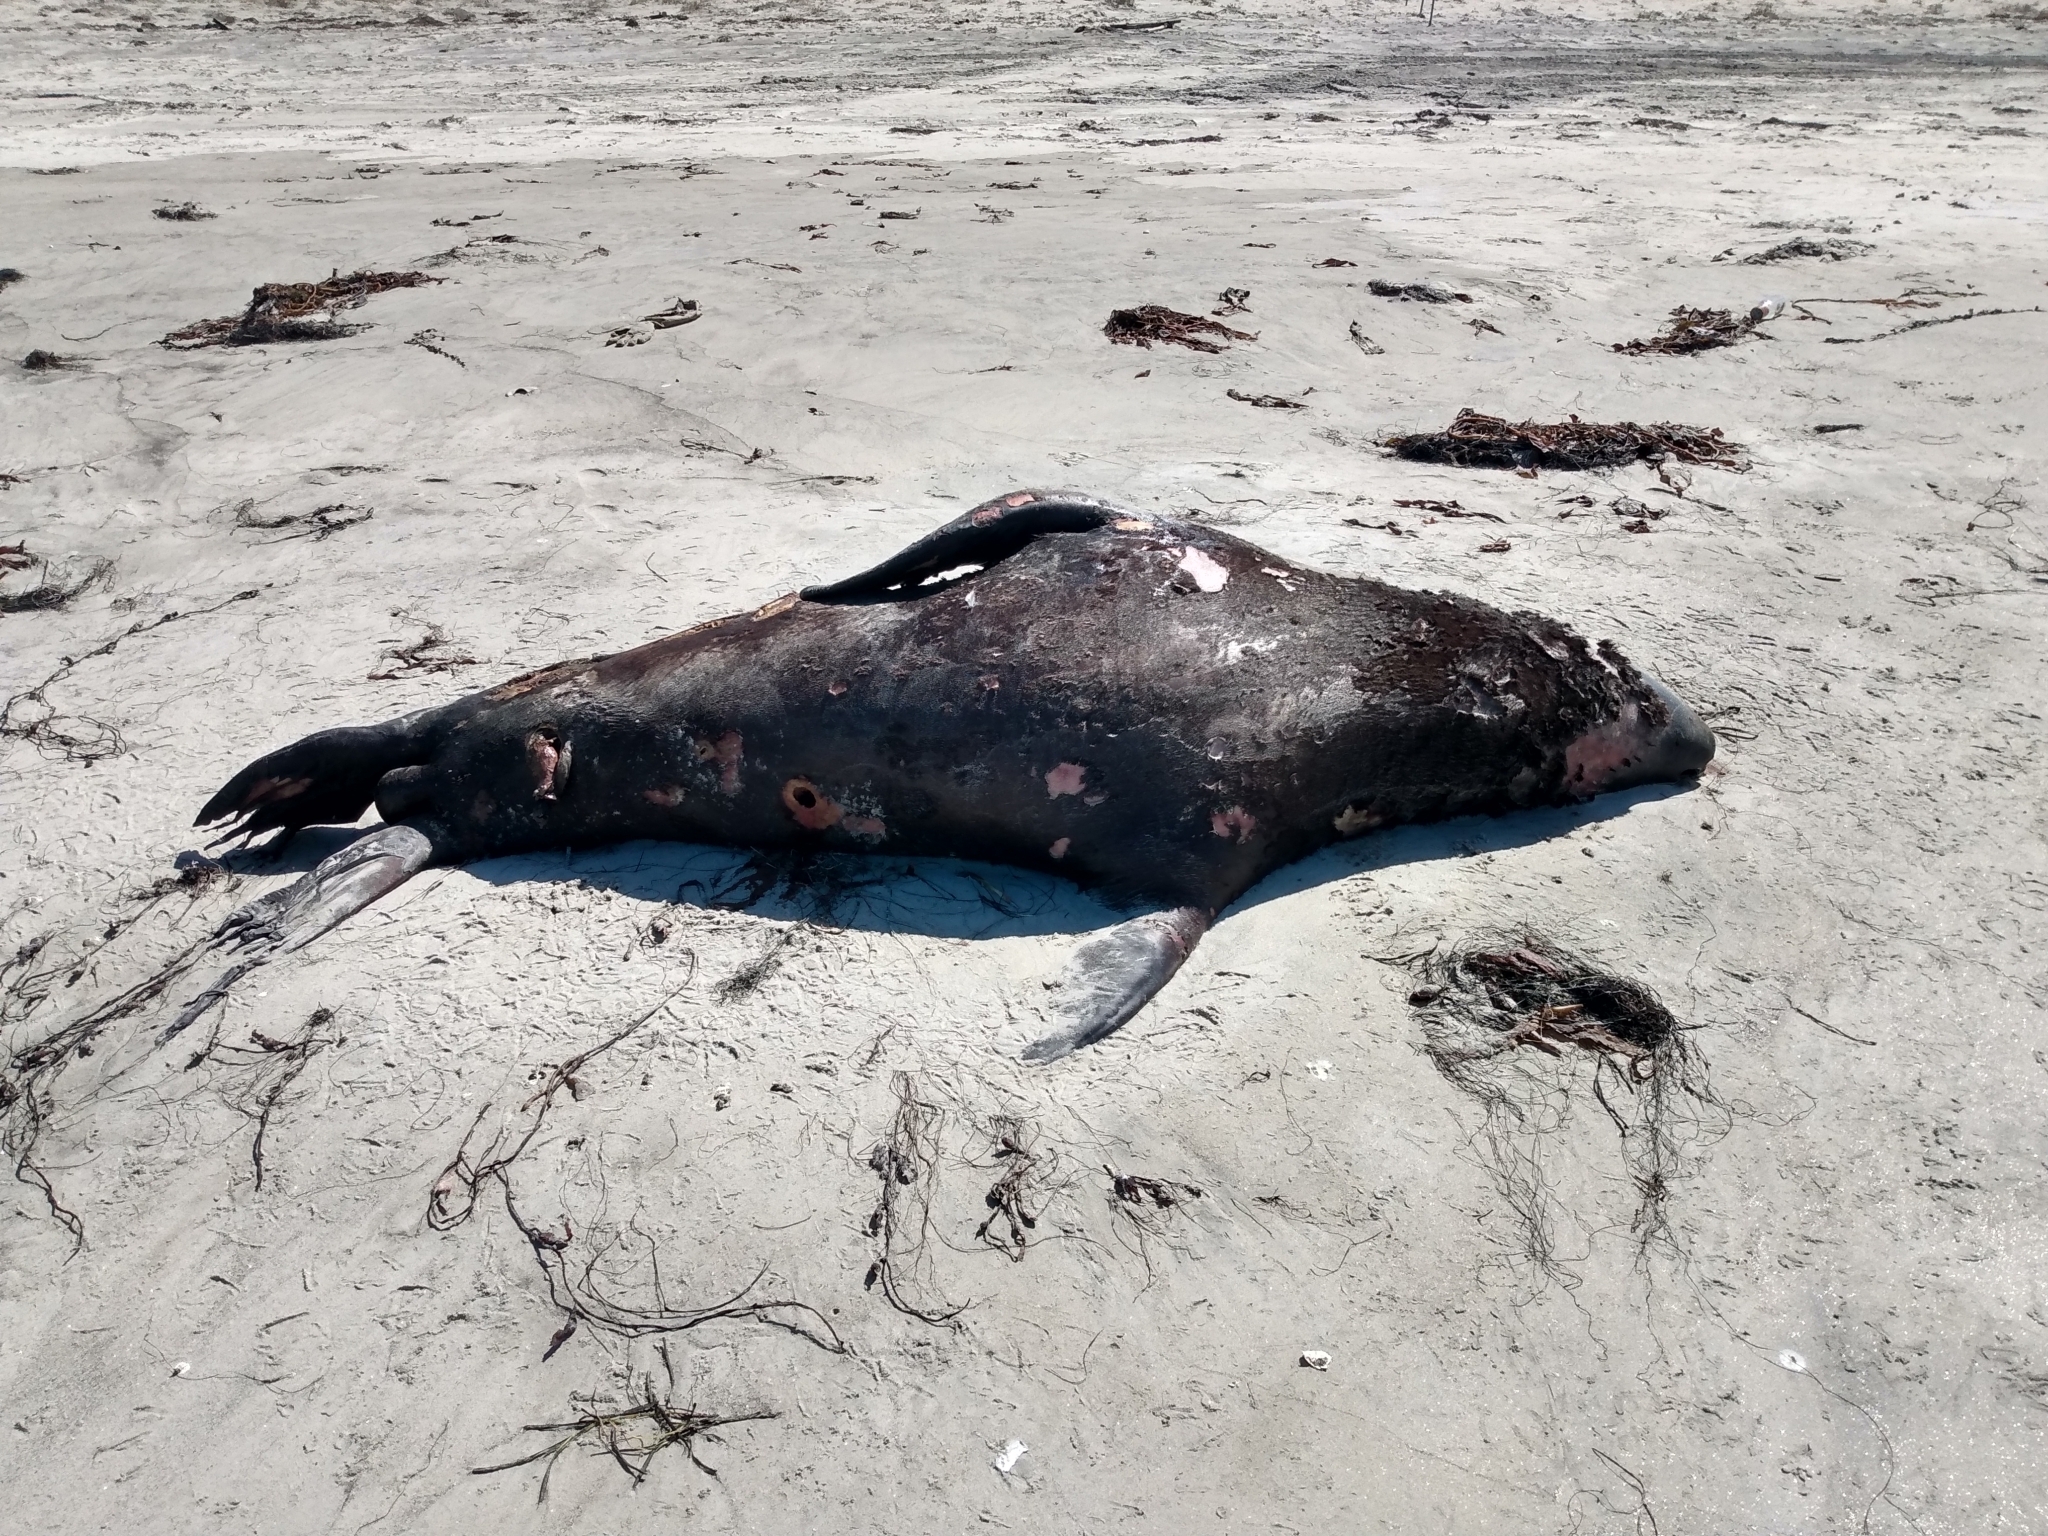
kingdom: Animalia
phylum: Chordata
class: Mammalia
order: Carnivora
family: Otariidae
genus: Zalophus
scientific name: Zalophus californianus
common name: California sea lion
